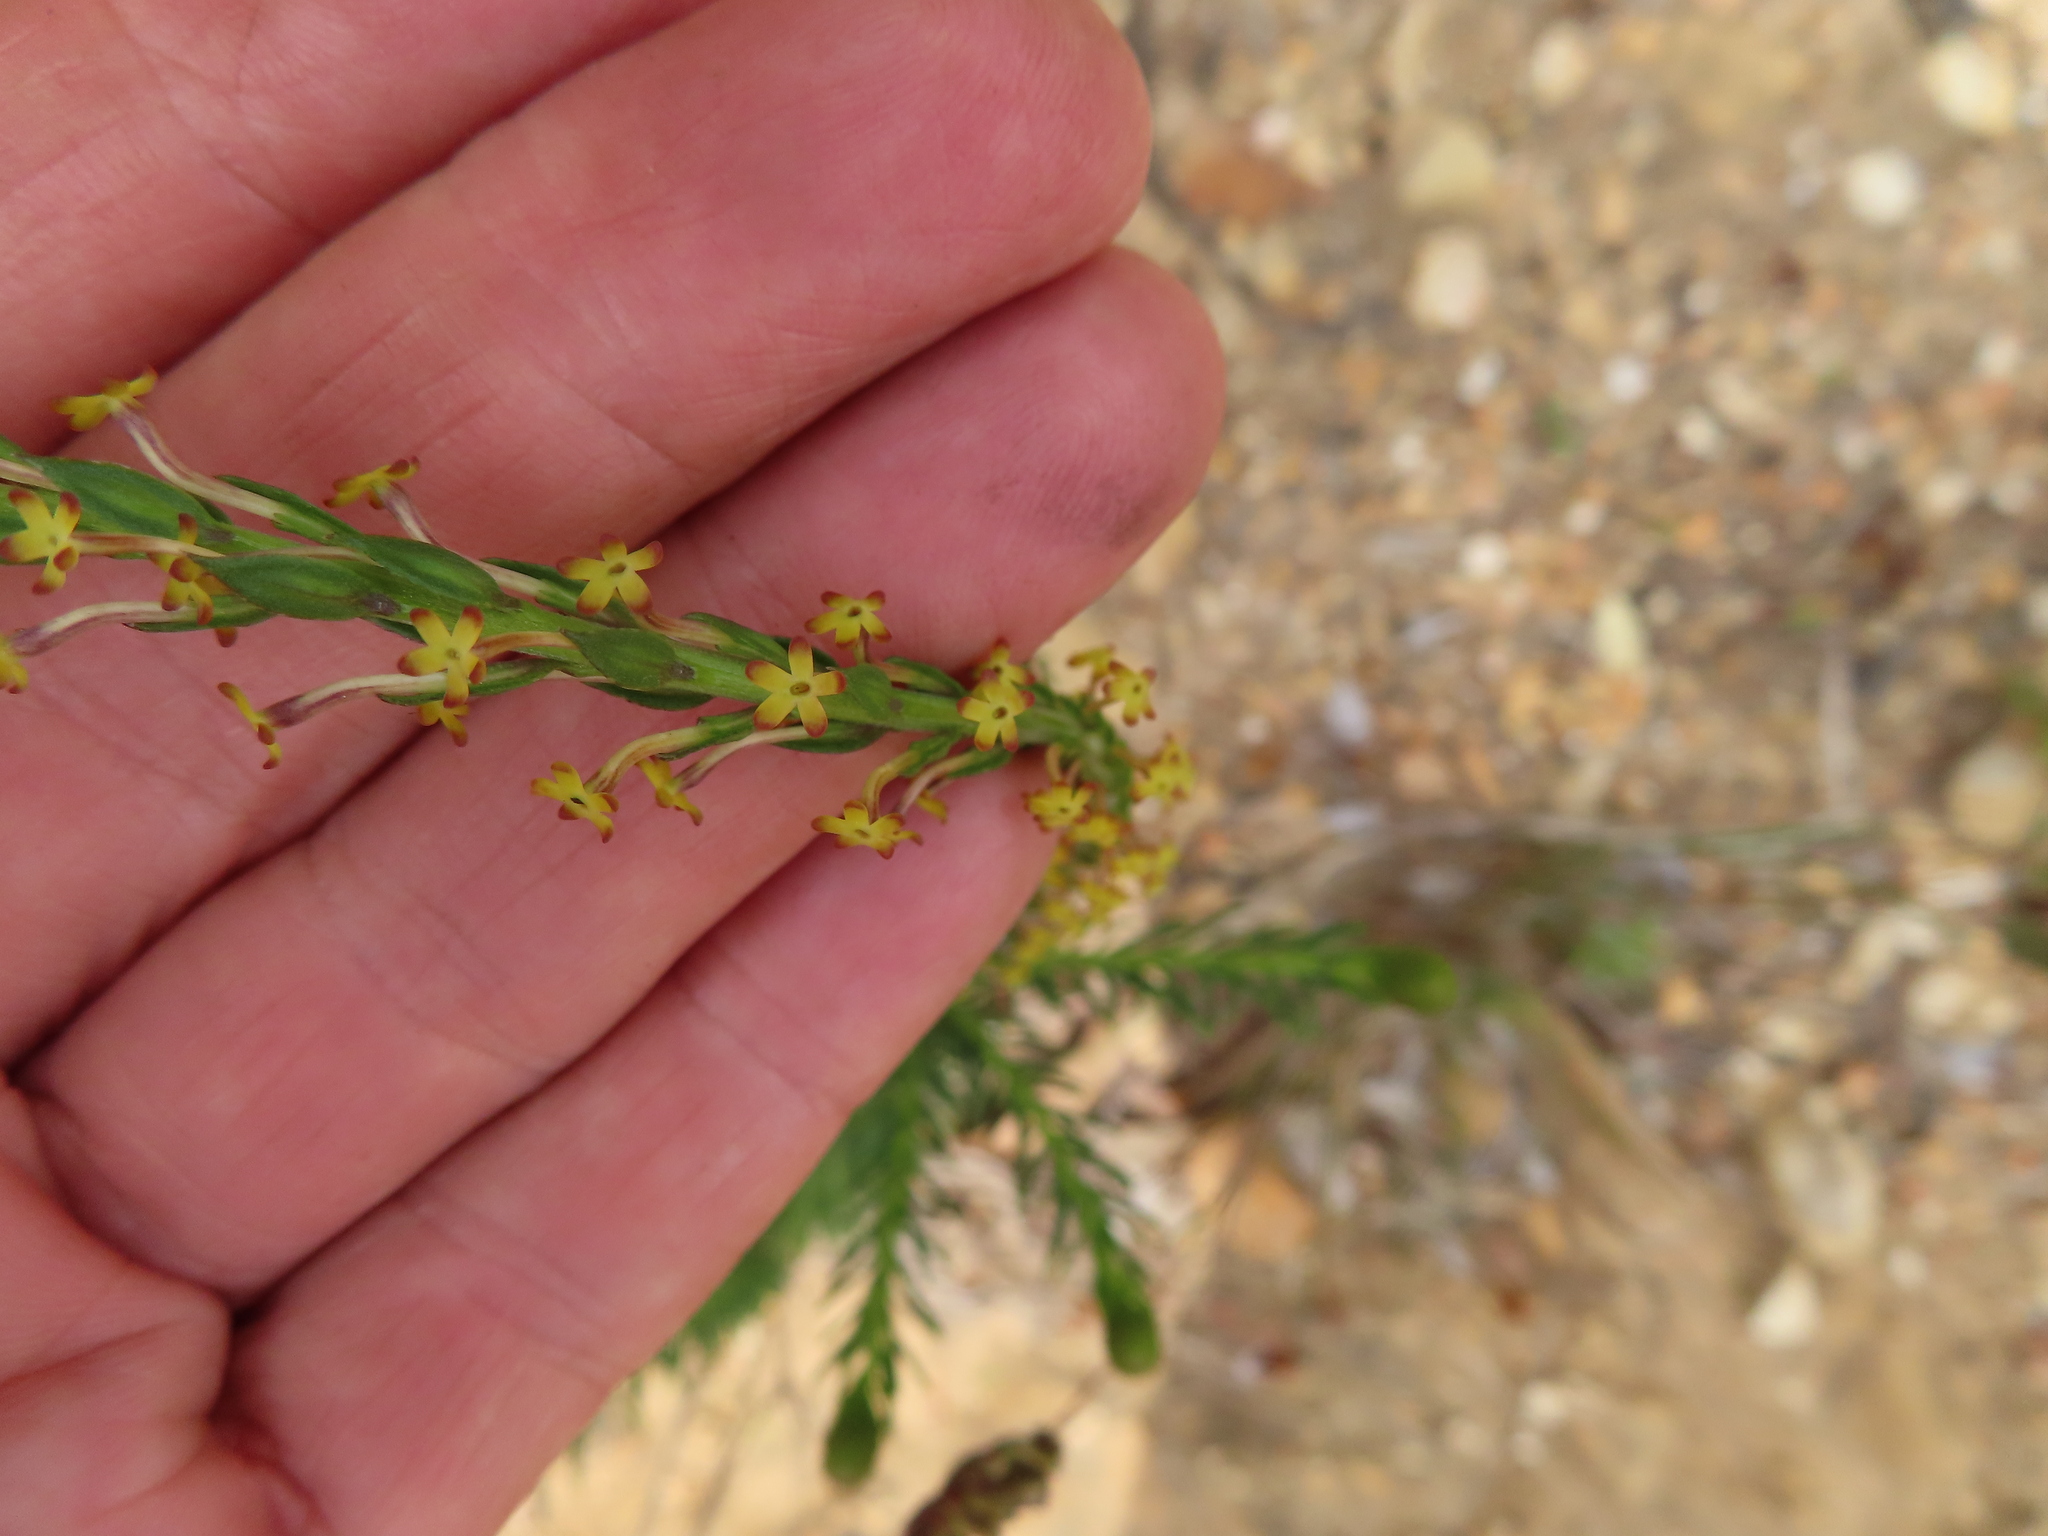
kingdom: Plantae
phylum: Tracheophyta
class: Magnoliopsida
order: Lamiales
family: Scrophulariaceae
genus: Microdon
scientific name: Microdon dubius
